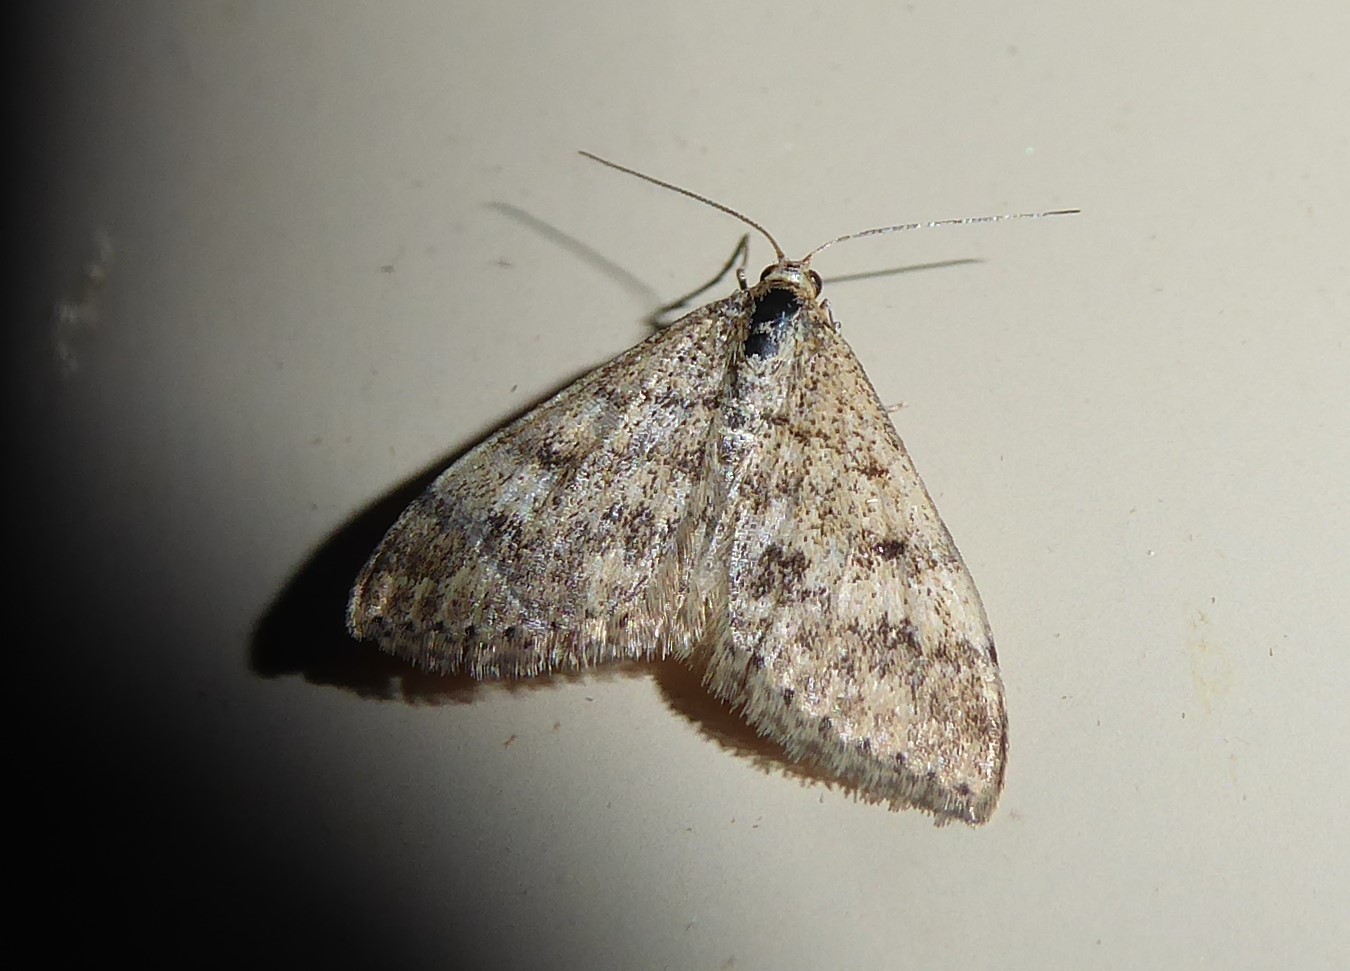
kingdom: Animalia
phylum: Arthropoda
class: Insecta
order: Lepidoptera
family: Geometridae
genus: Scopula
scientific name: Scopula rubraria
